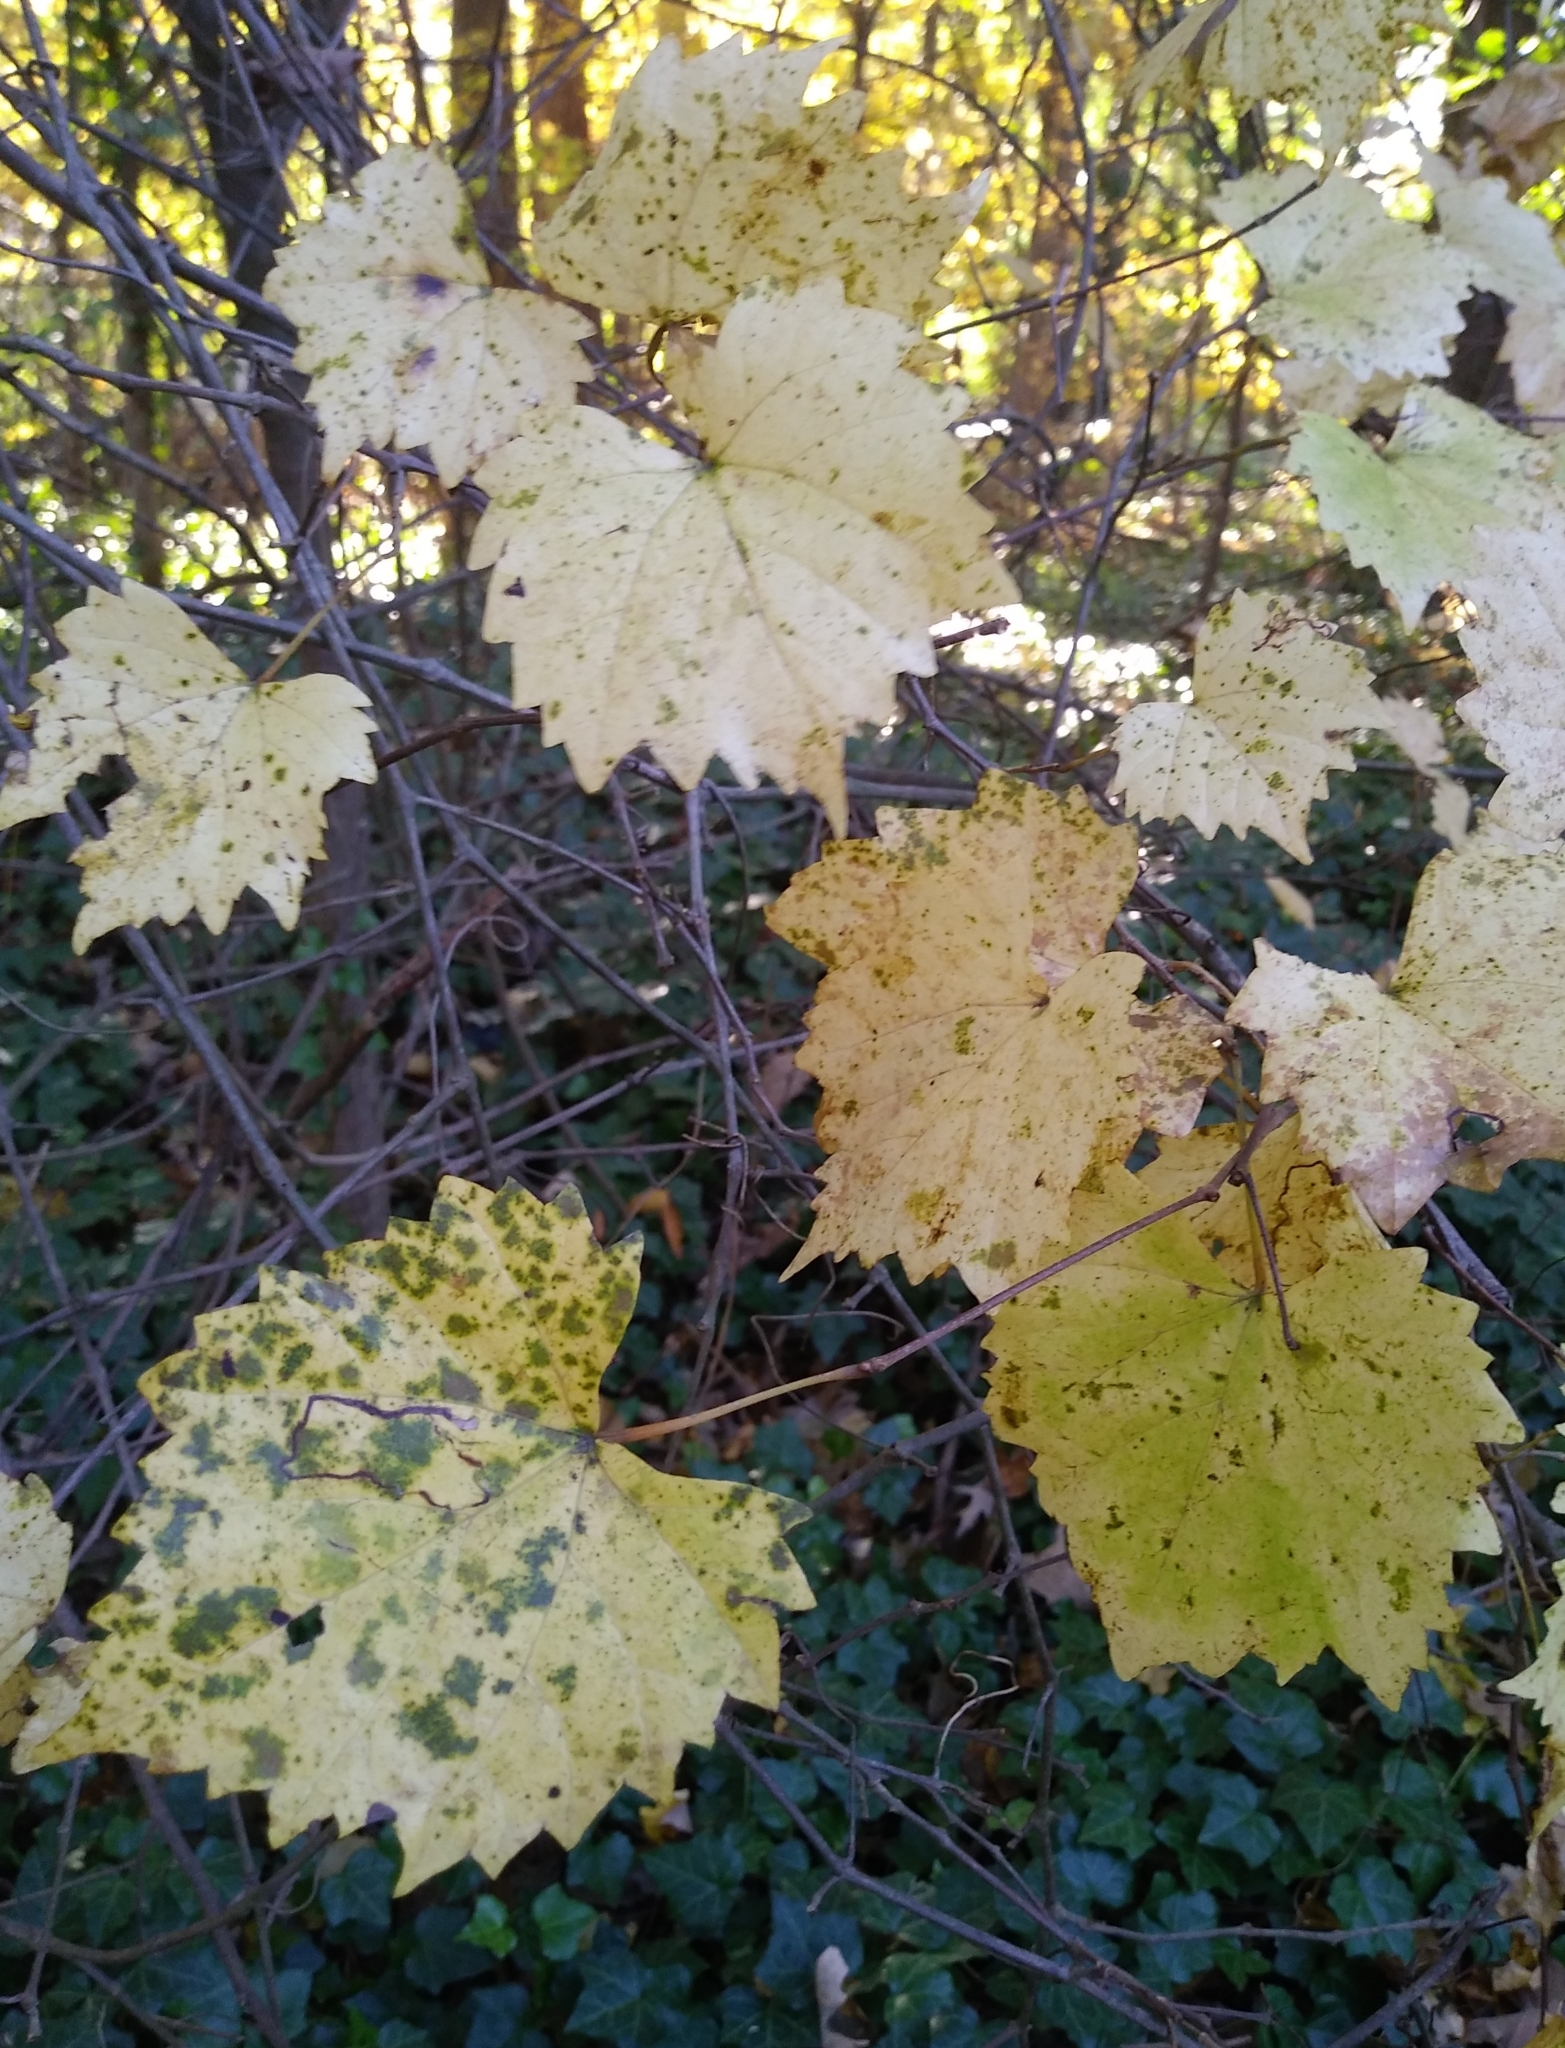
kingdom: Plantae
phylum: Tracheophyta
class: Magnoliopsida
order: Vitales
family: Vitaceae
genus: Vitis
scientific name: Vitis rotundifolia
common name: Muscadine grape
